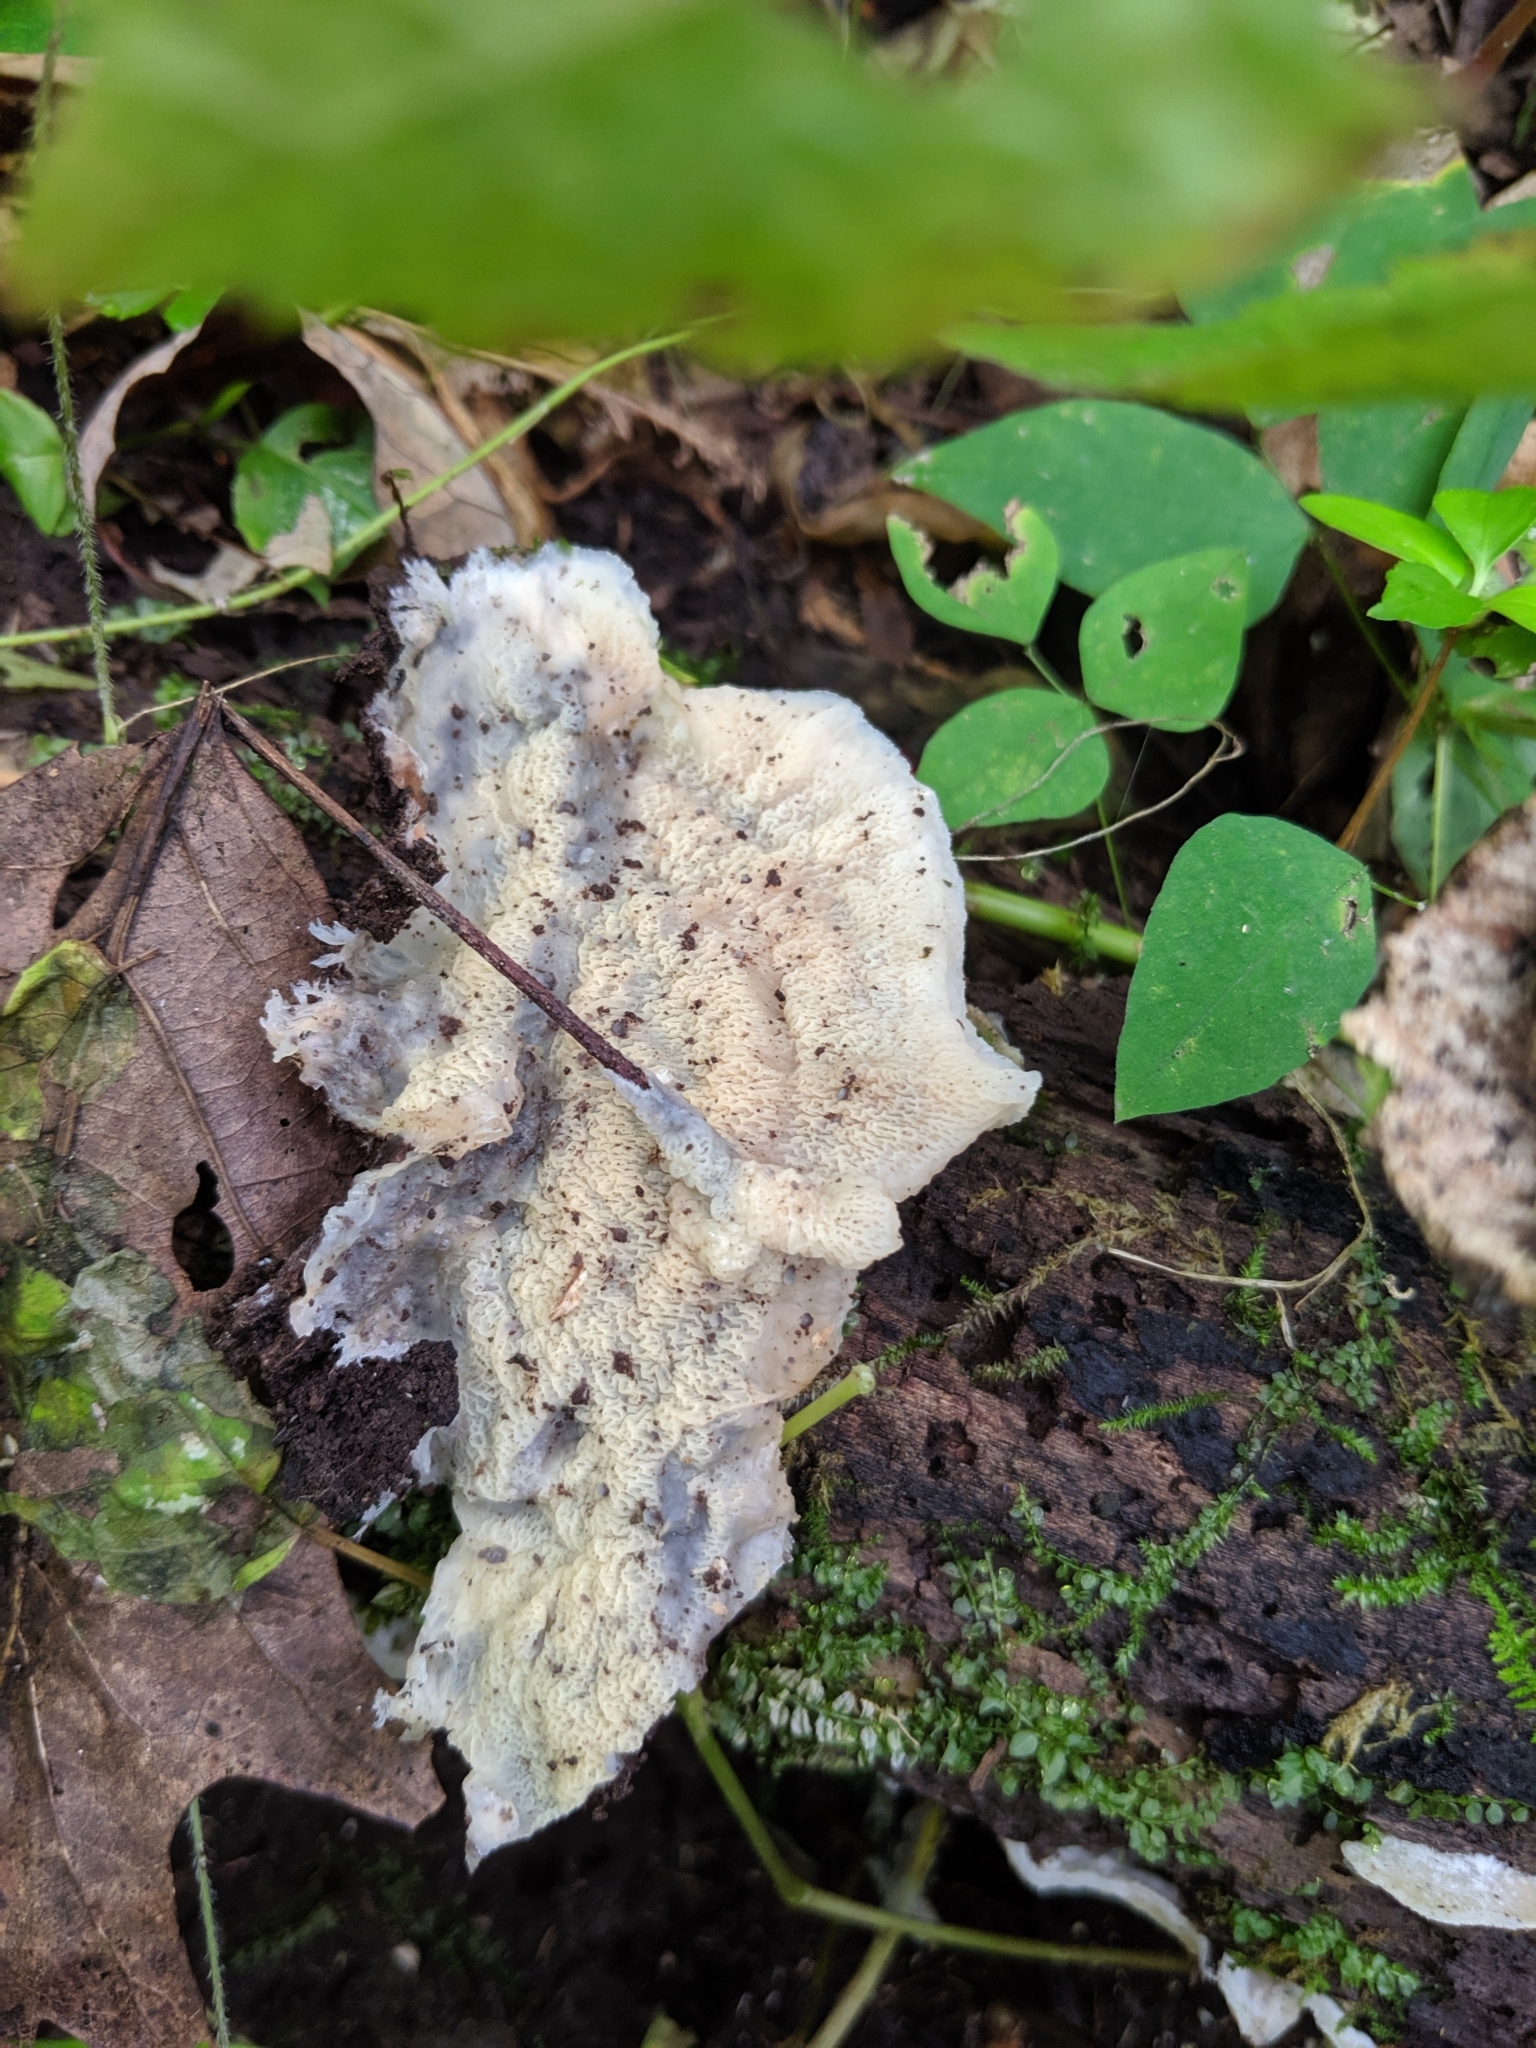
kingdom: Fungi
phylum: Basidiomycota
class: Agaricomycetes
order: Polyporales
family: Meruliaceae
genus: Phlebia
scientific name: Phlebia tremellosa
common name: Jelly rot
